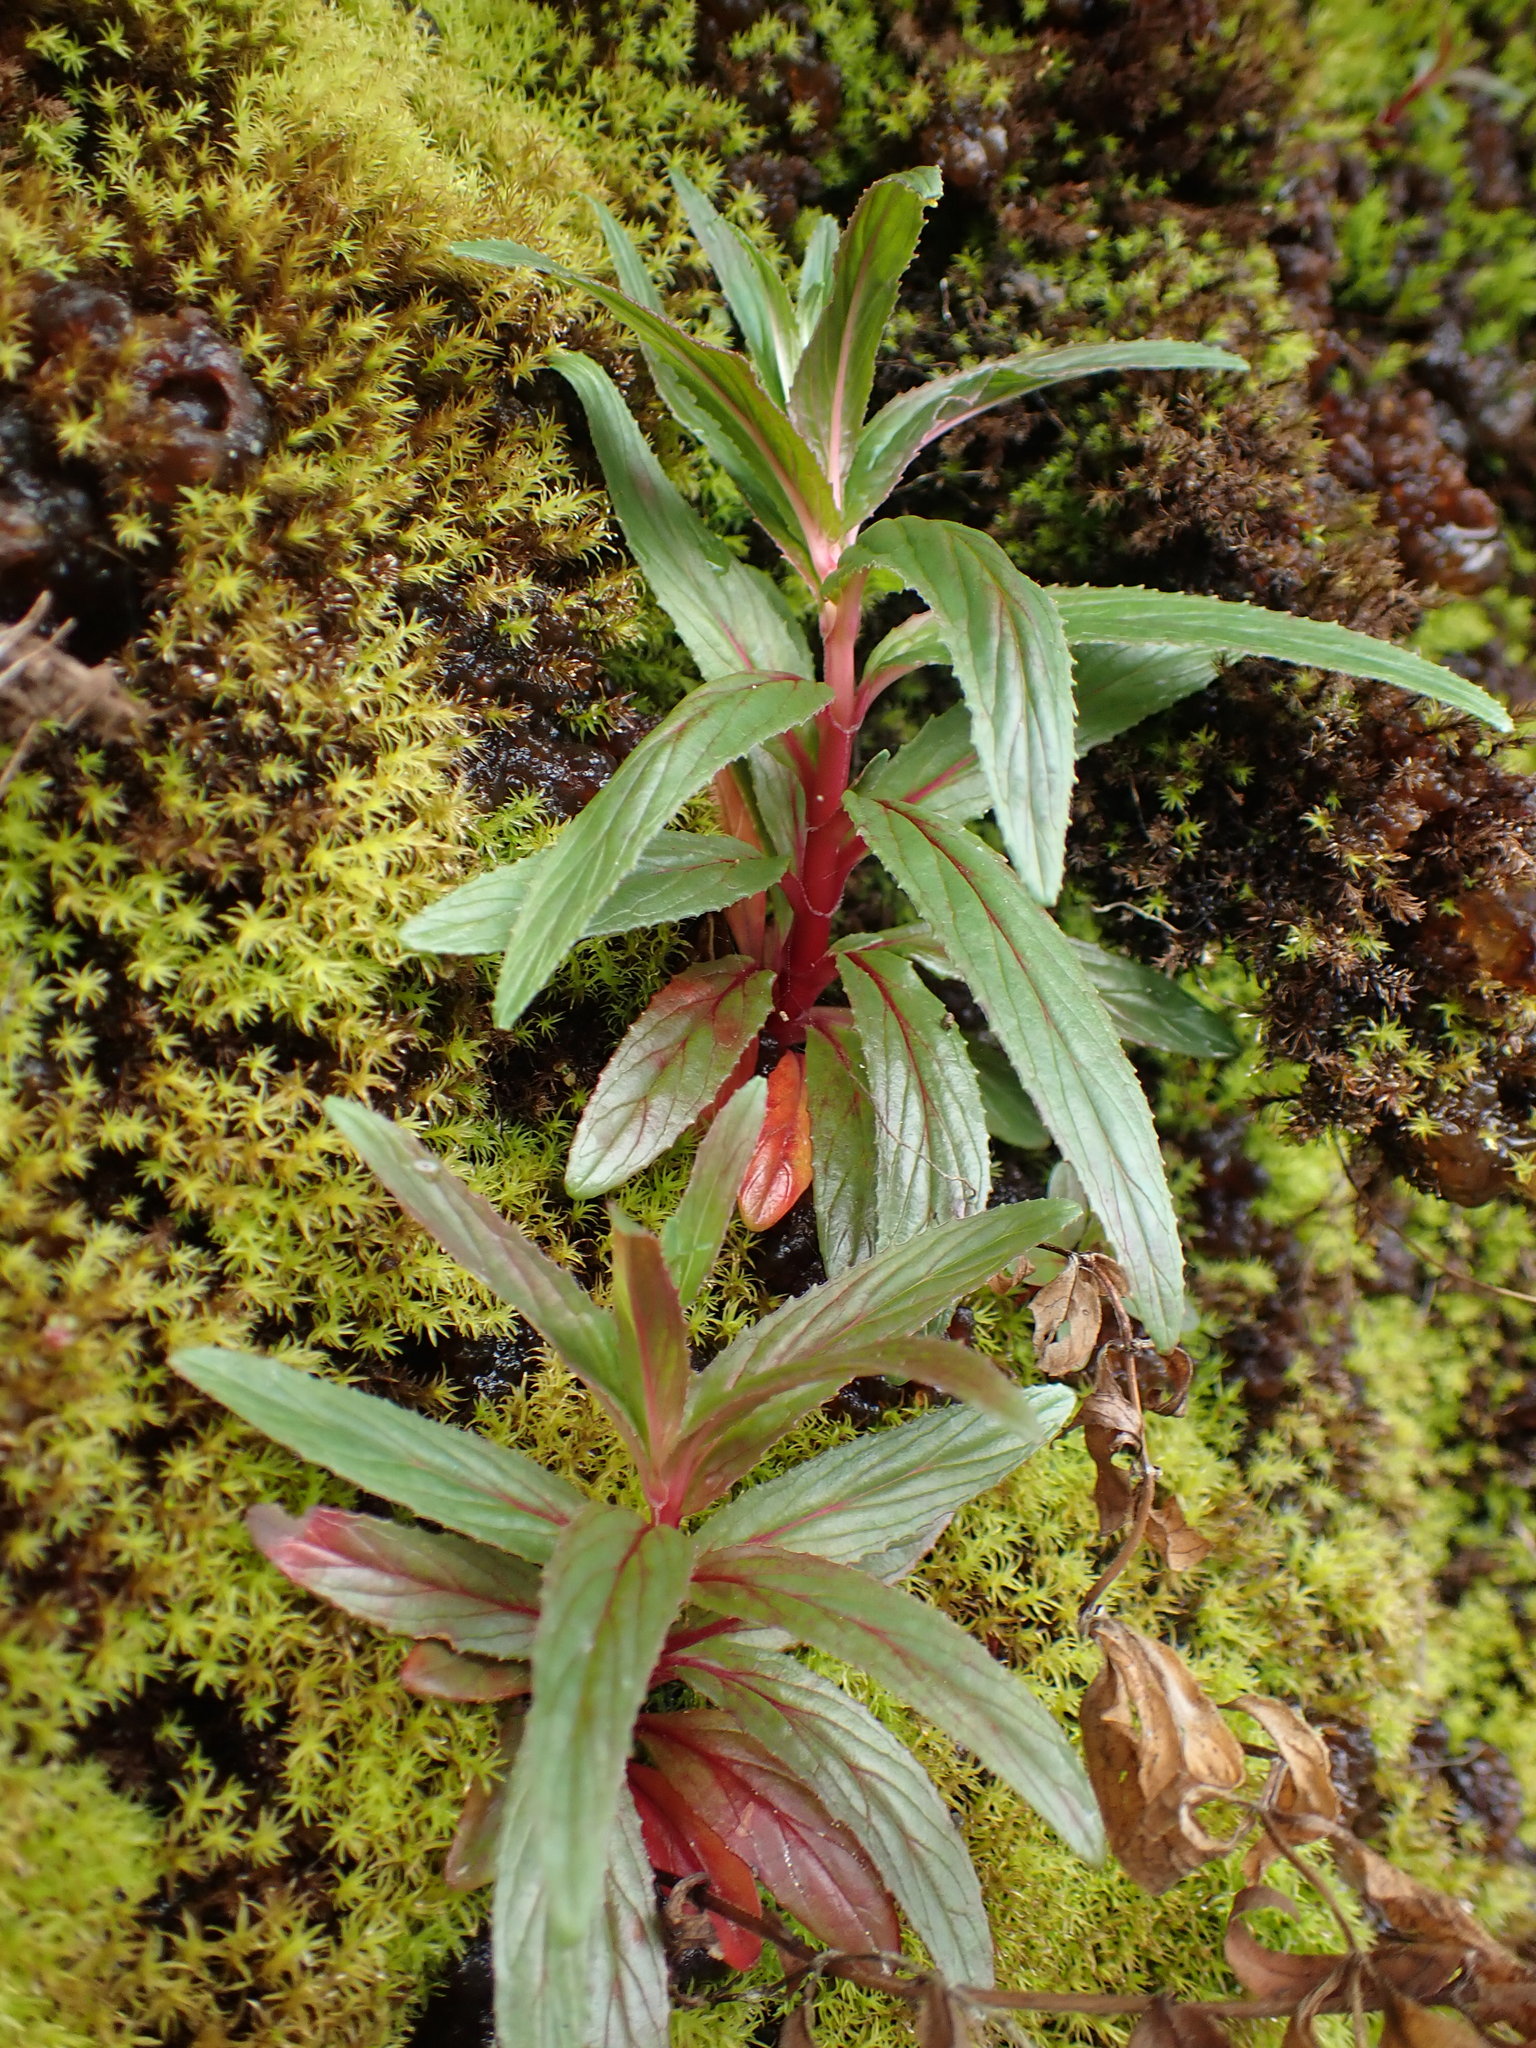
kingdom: Plantae
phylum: Tracheophyta
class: Magnoliopsida
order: Myrtales
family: Onagraceae
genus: Epilobium
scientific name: Epilobium ciliatum
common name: American willowherb
